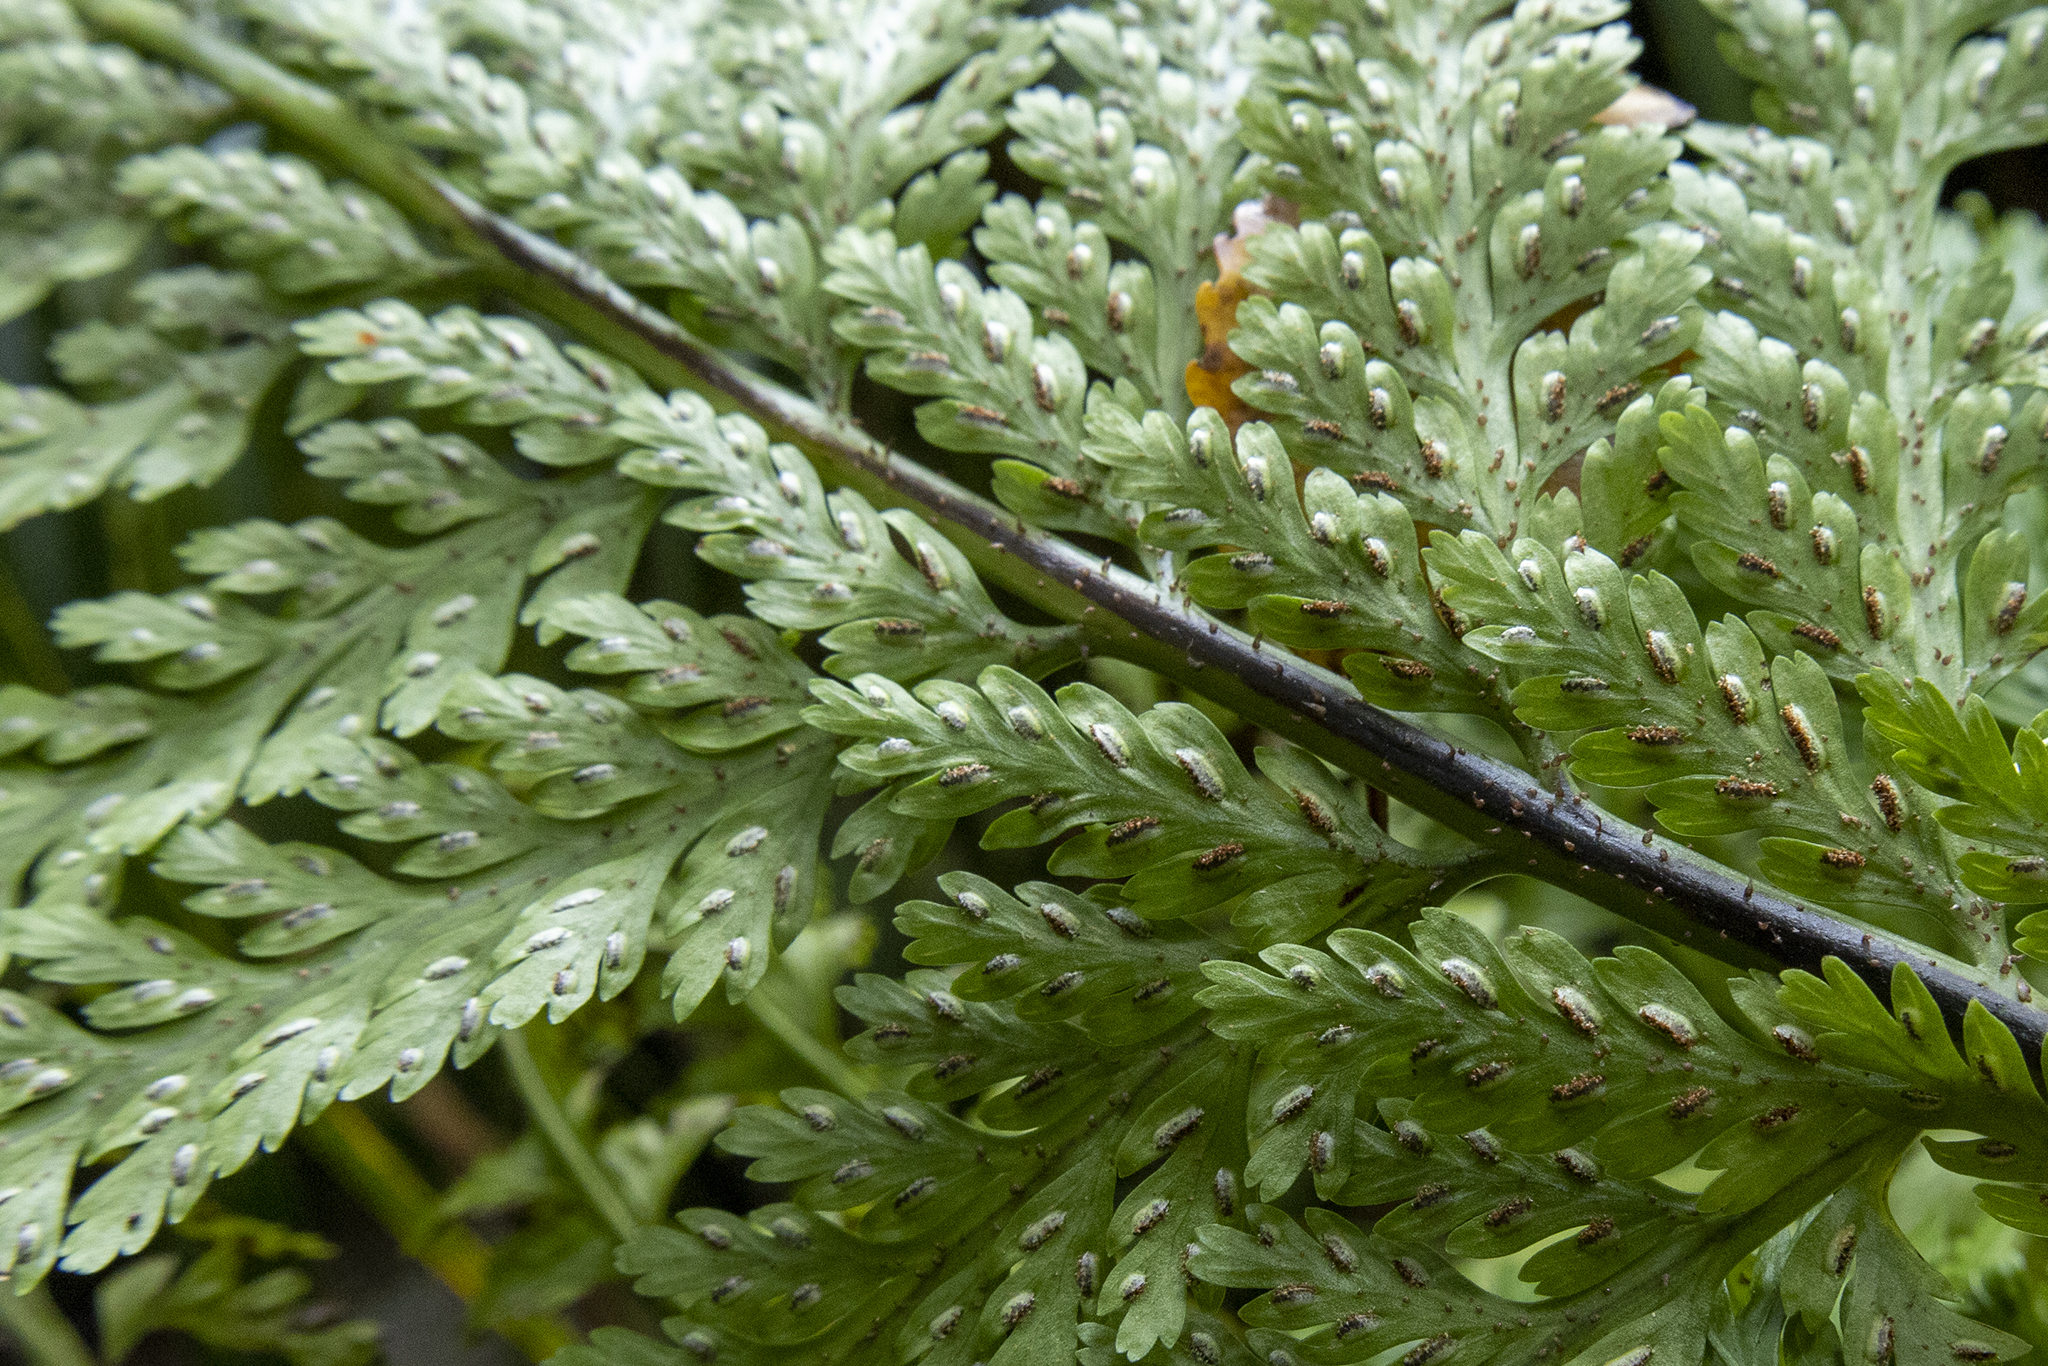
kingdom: Plantae
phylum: Tracheophyta
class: Polypodiopsida
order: Polypodiales
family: Aspleniaceae
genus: Asplenium
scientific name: Asplenium
